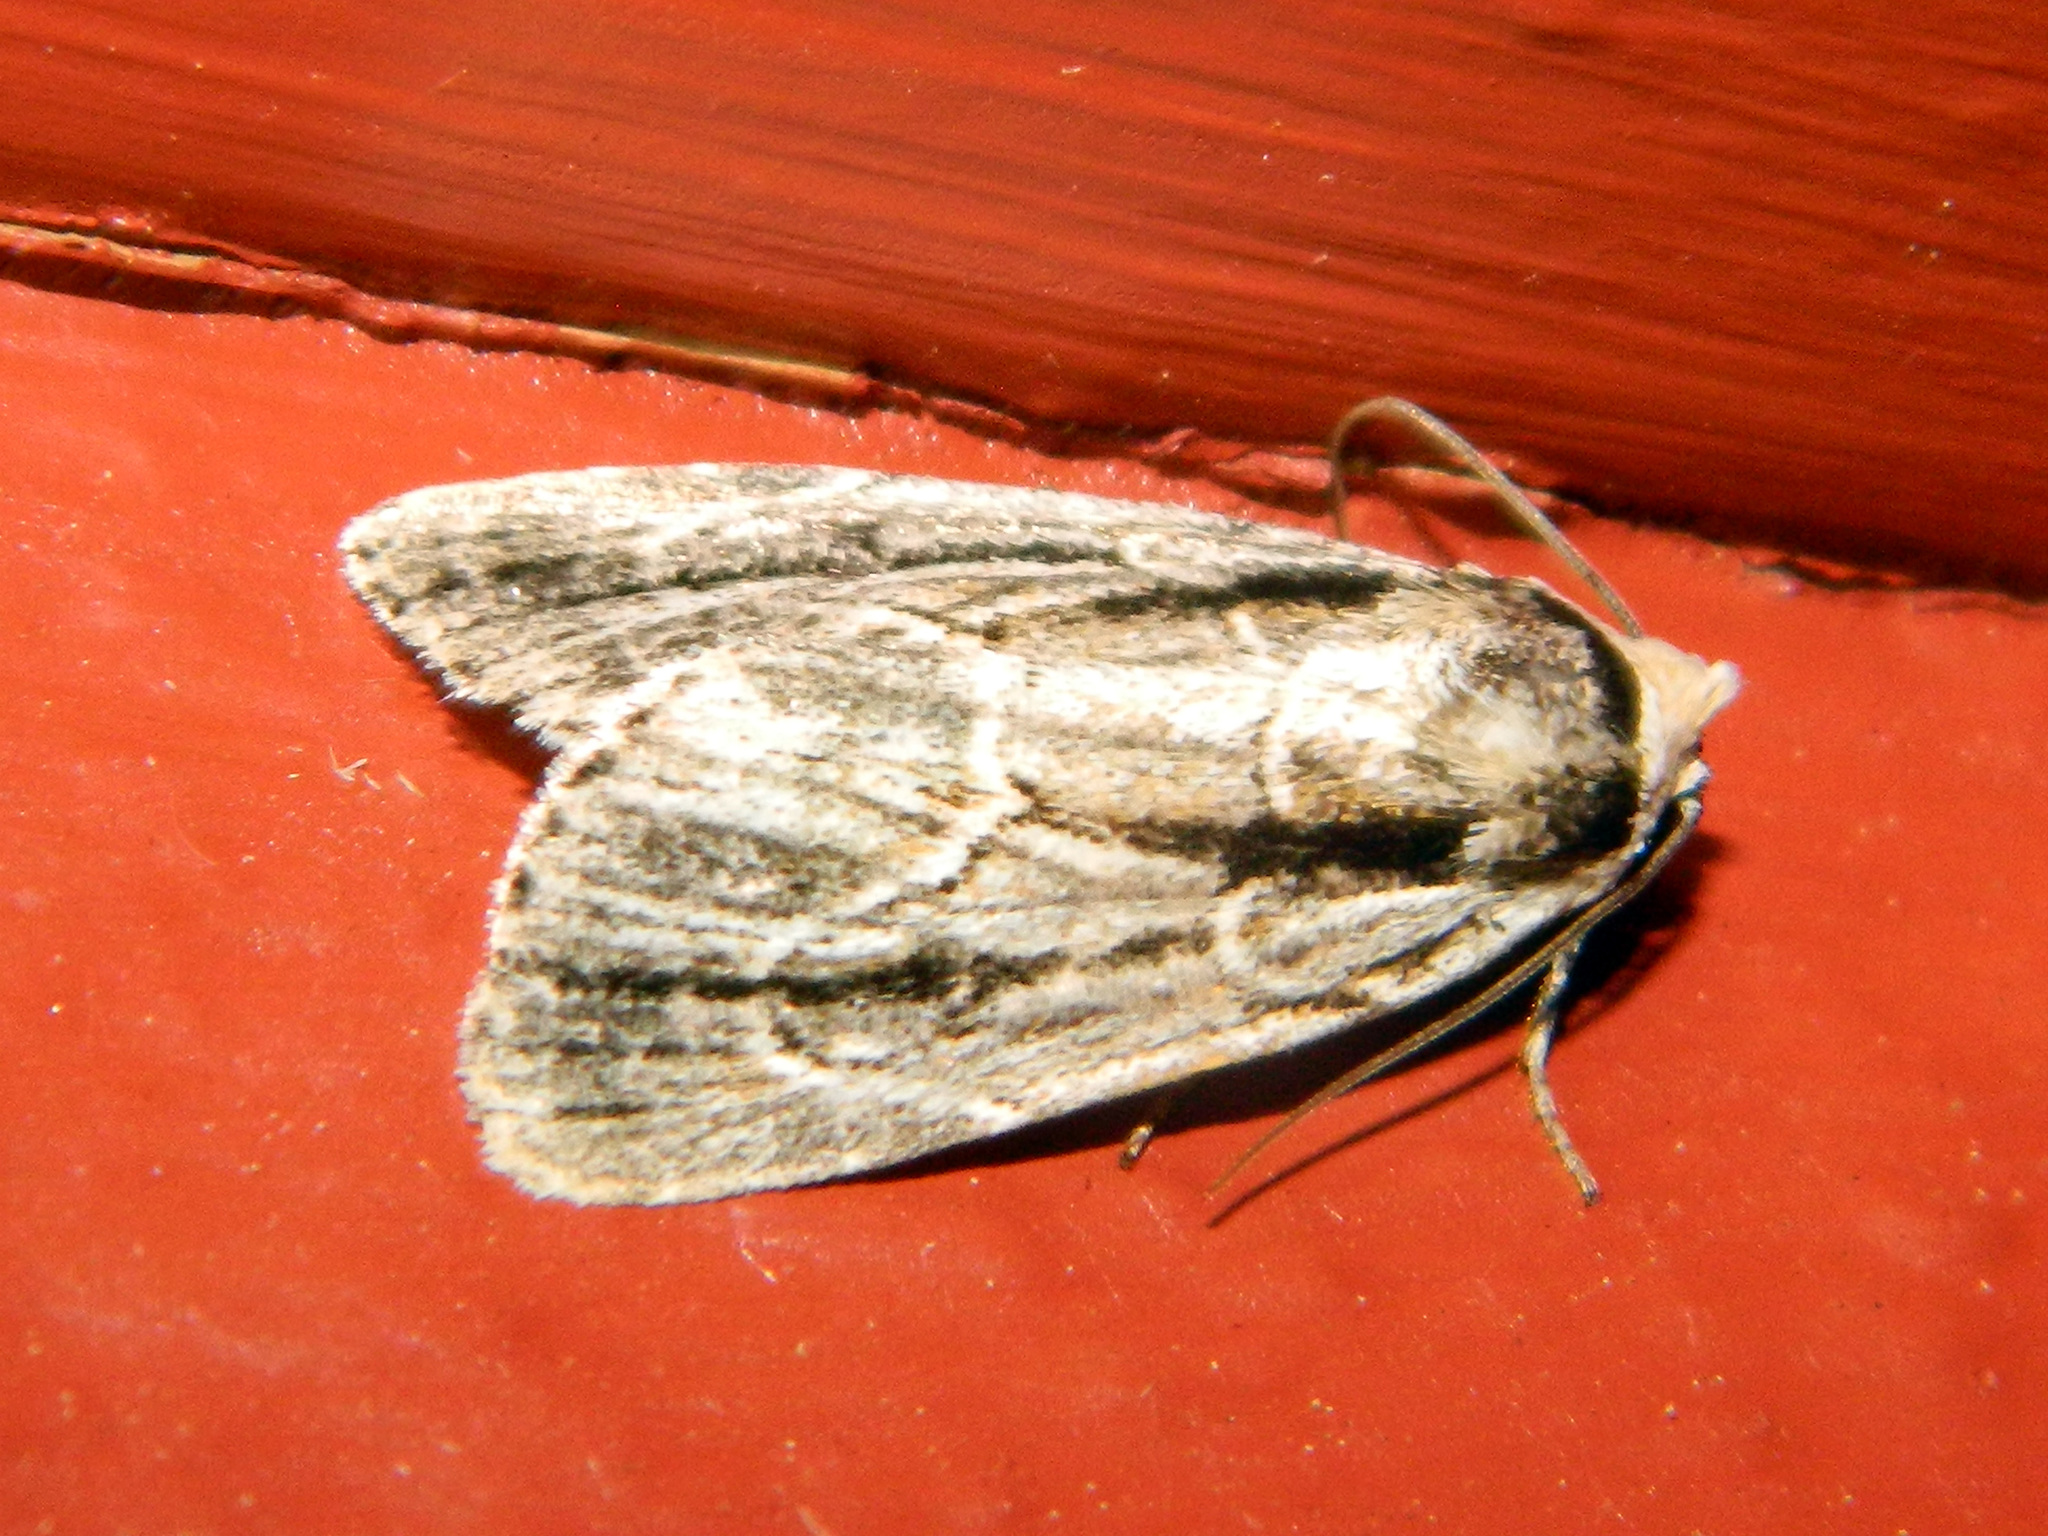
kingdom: Animalia
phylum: Arthropoda
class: Insecta
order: Lepidoptera
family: Noctuidae
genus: Sympistis
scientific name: Sympistis badistriga
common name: Brown-lined sallow moth
